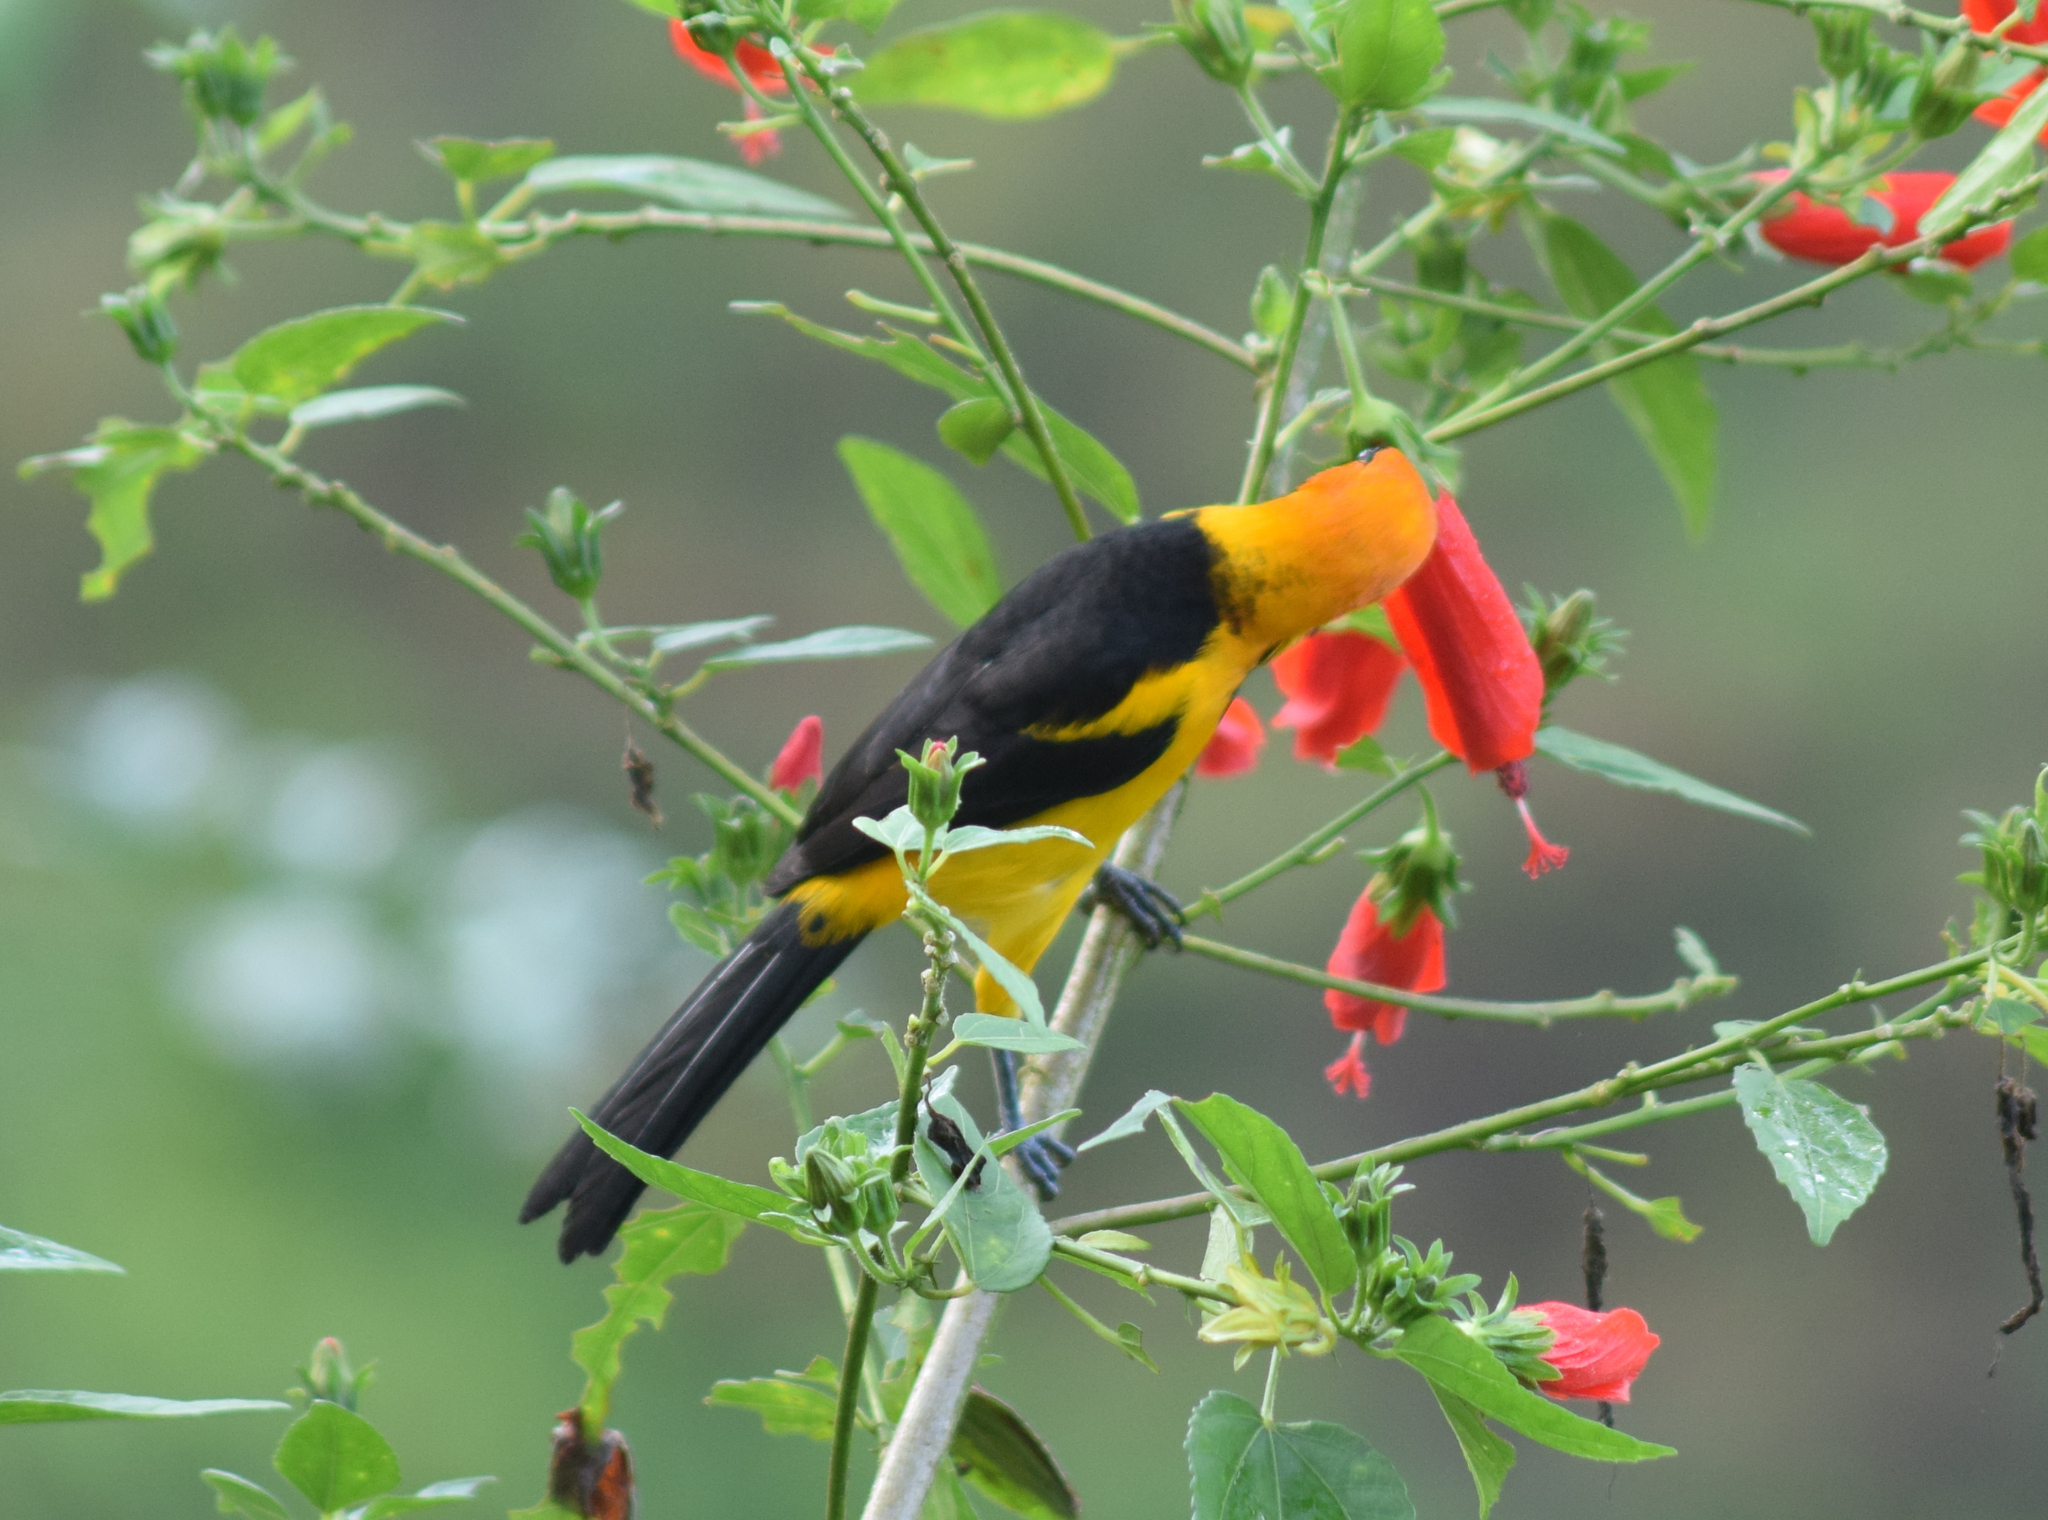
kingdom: Animalia
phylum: Chordata
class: Aves
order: Passeriformes
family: Icteridae
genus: Icterus
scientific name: Icterus auricapillus
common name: Orange-crowned oriole
